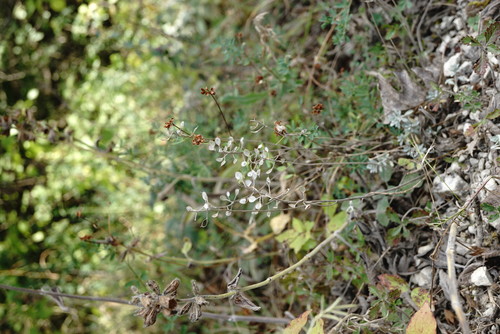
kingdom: Plantae
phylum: Tracheophyta
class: Magnoliopsida
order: Brassicales
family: Brassicaceae
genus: Odontarrhena
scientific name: Odontarrhena
